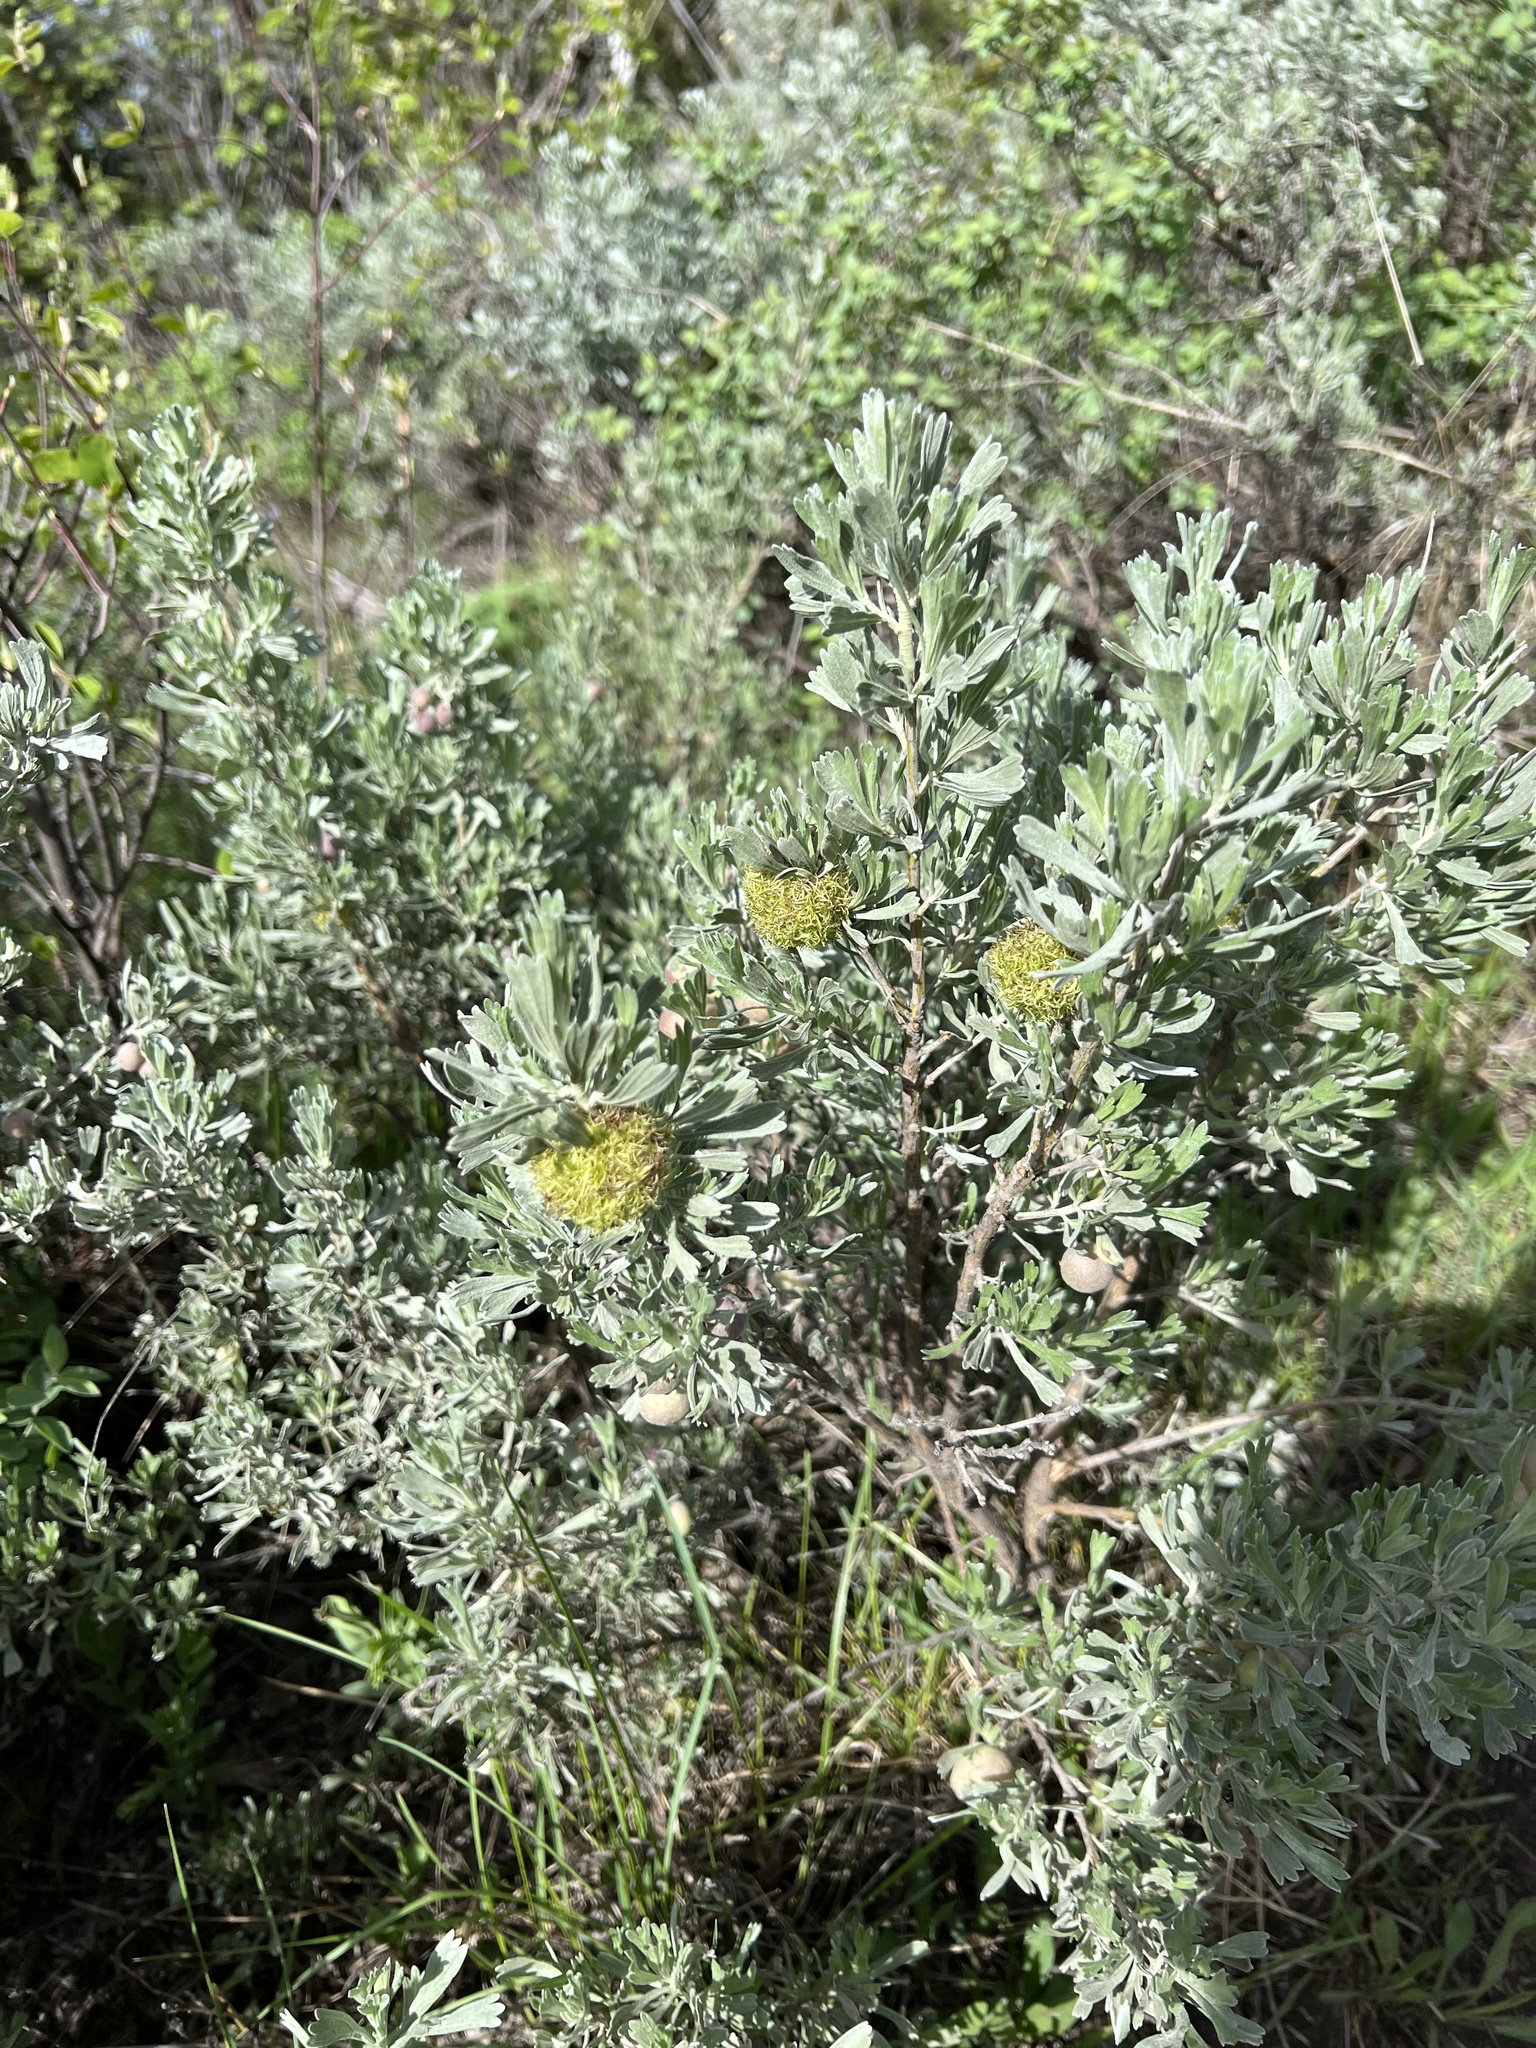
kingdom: Animalia
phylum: Arthropoda
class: Insecta
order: Diptera
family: Cecidomyiidae
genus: Rhopalomyia
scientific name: Rhopalomyia medusa
